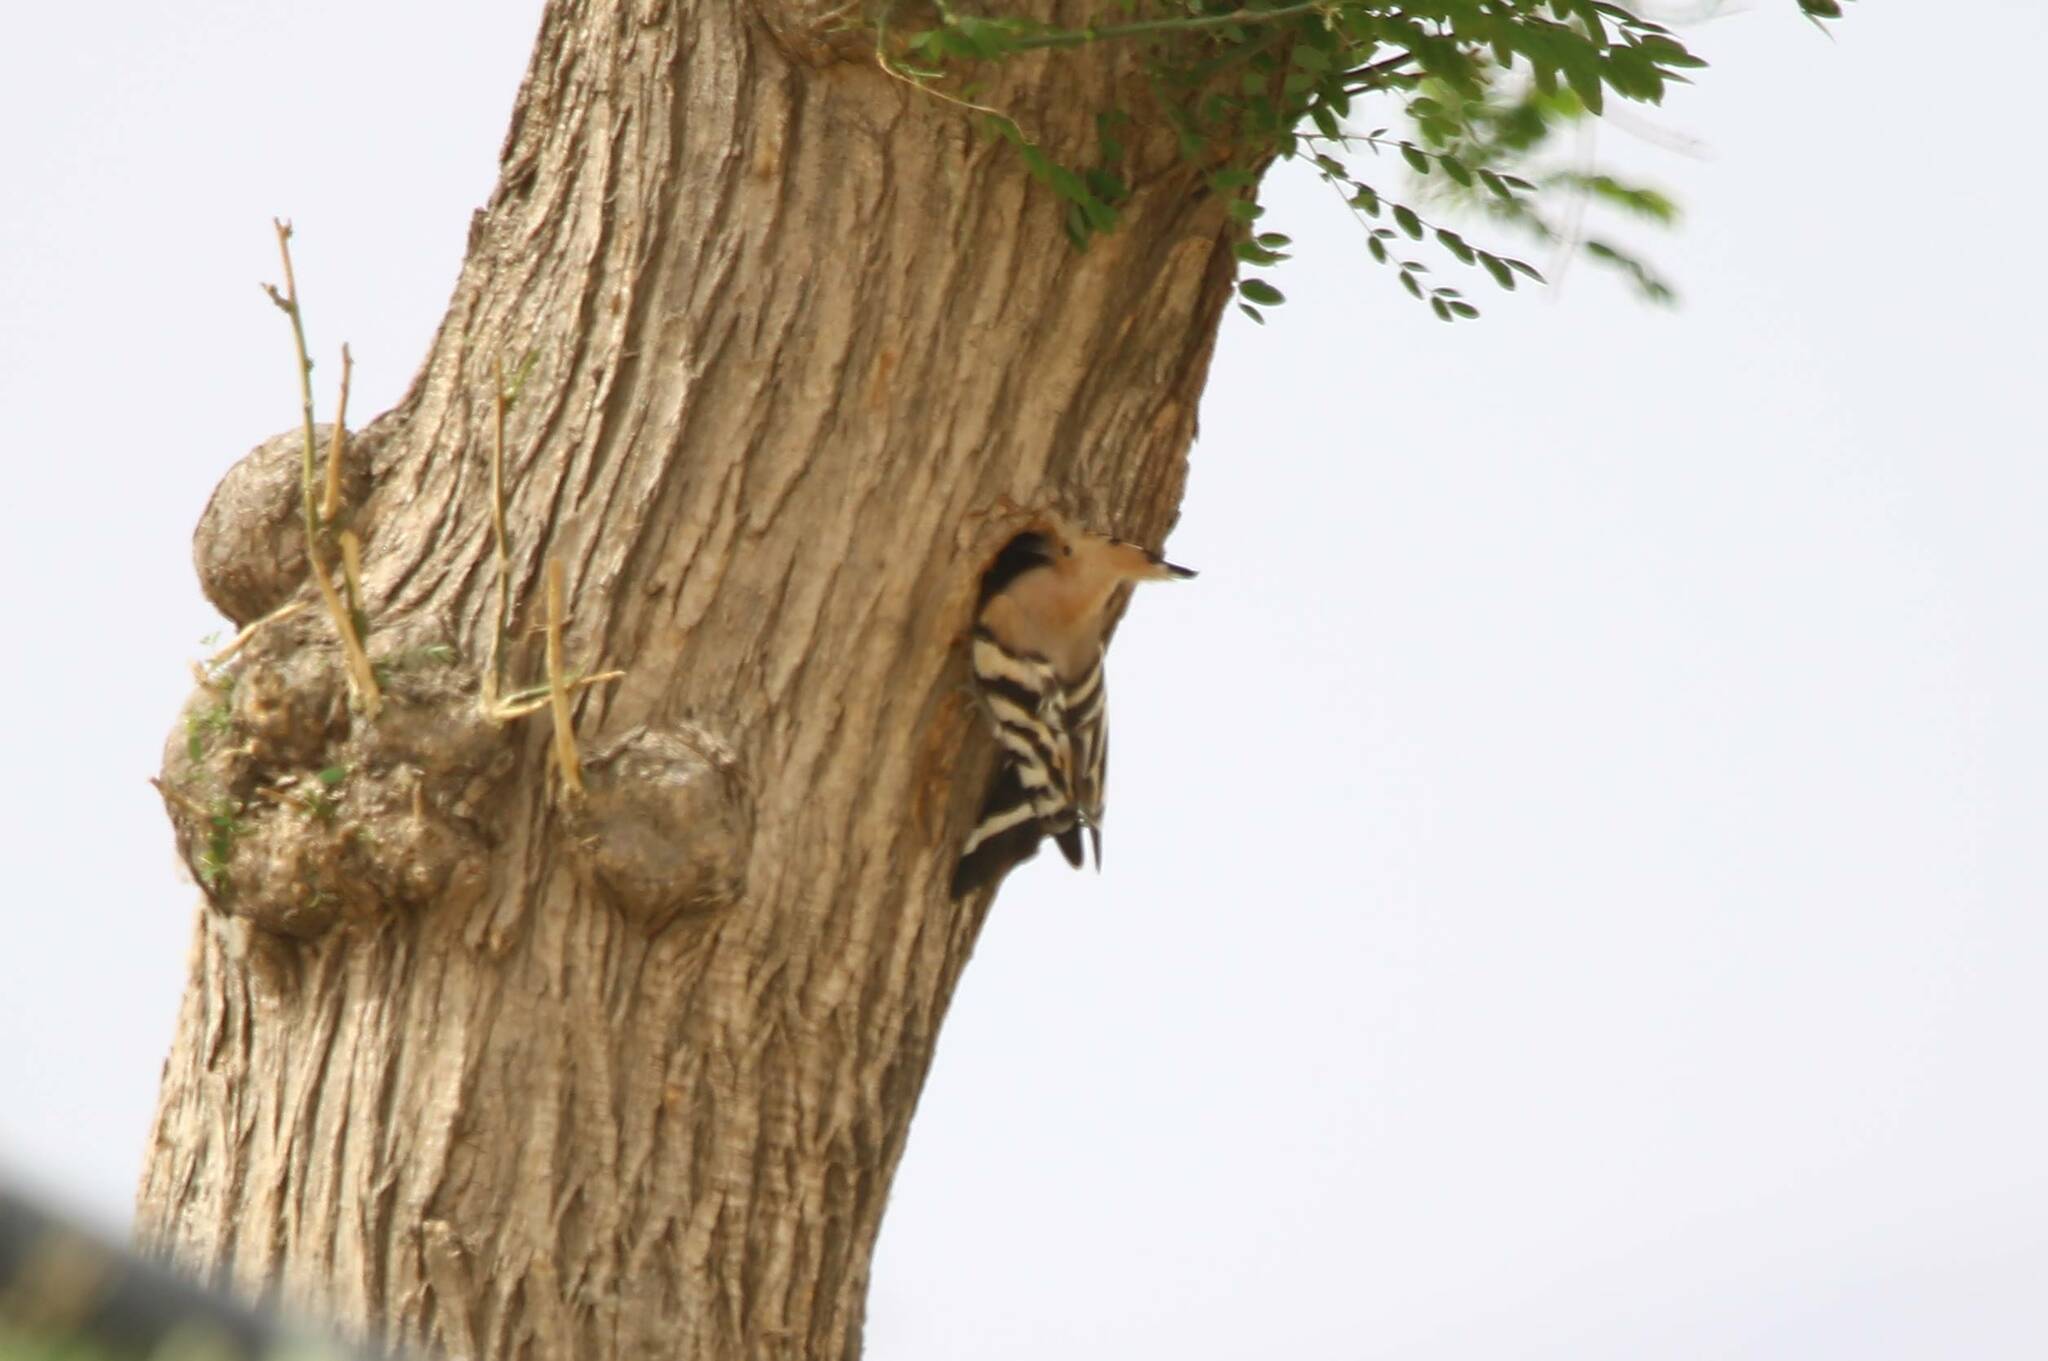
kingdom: Animalia
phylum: Chordata
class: Aves
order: Bucerotiformes
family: Upupidae
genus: Upupa
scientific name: Upupa epops
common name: Eurasian hoopoe
